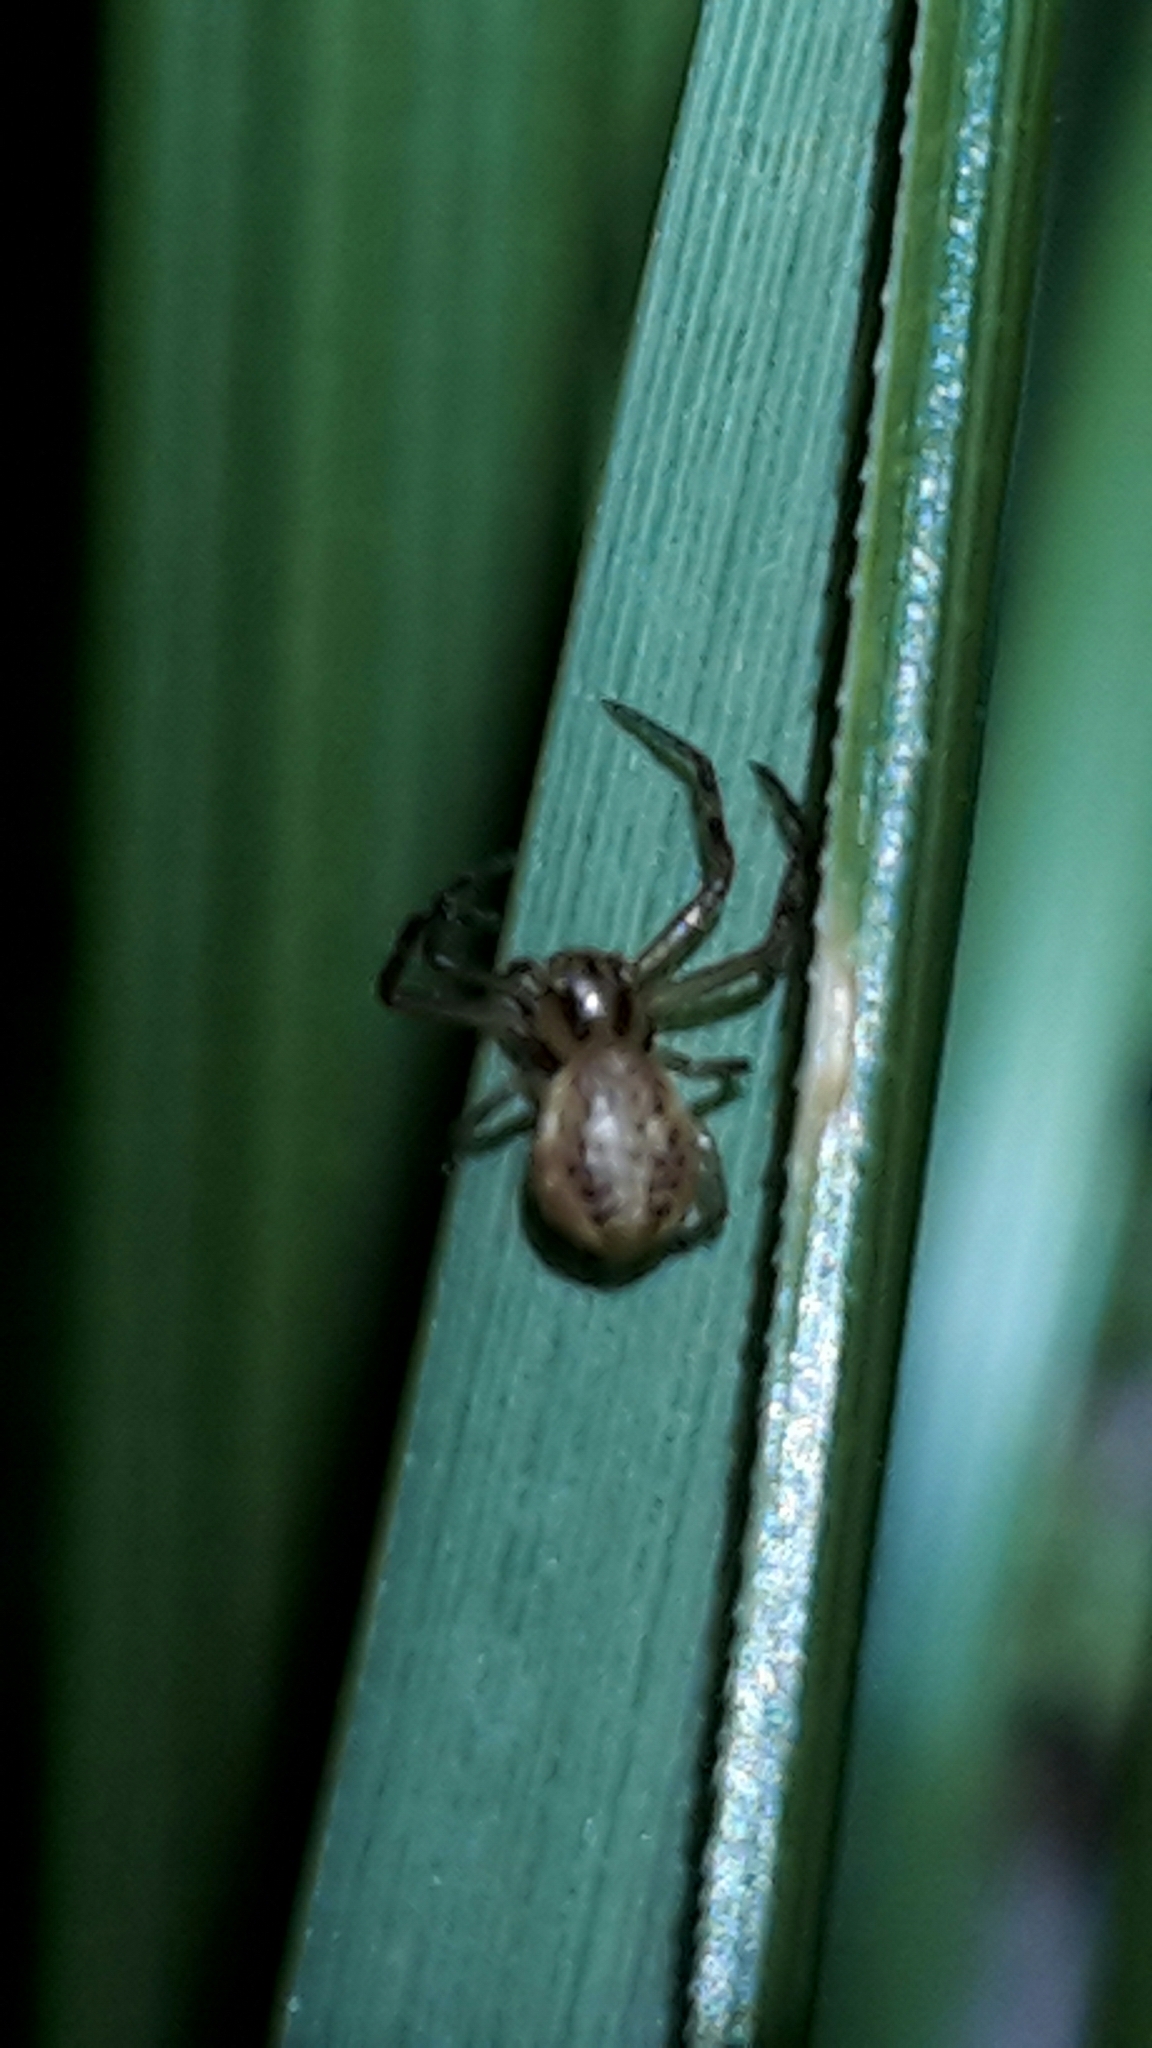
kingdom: Animalia
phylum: Arthropoda
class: Arachnida
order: Araneae
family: Thomisidae
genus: Diaea
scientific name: Diaea ambara
